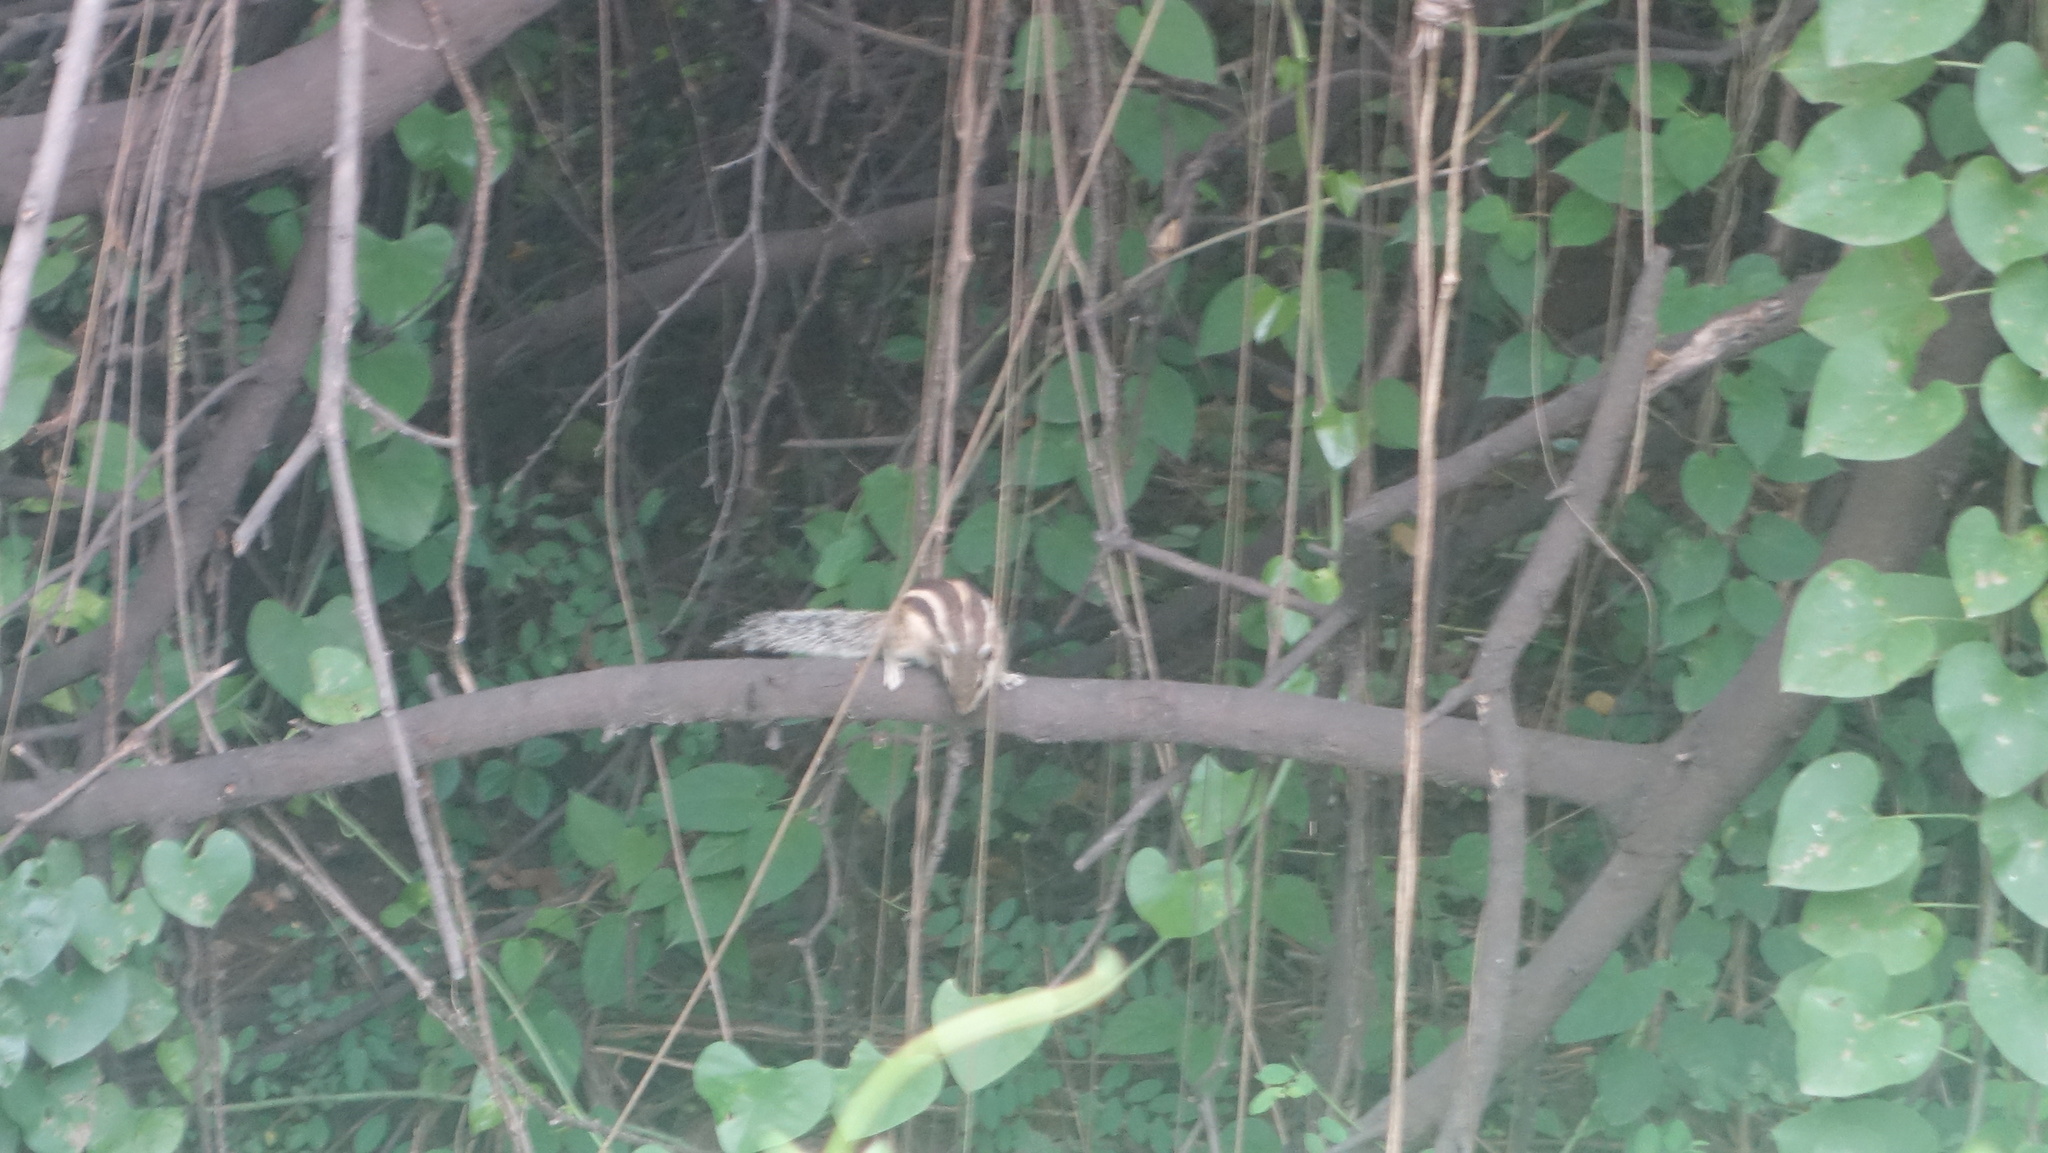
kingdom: Animalia
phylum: Chordata
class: Mammalia
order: Rodentia
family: Sciuridae
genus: Funambulus
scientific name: Funambulus pennantii
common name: Northern palm squirrel
